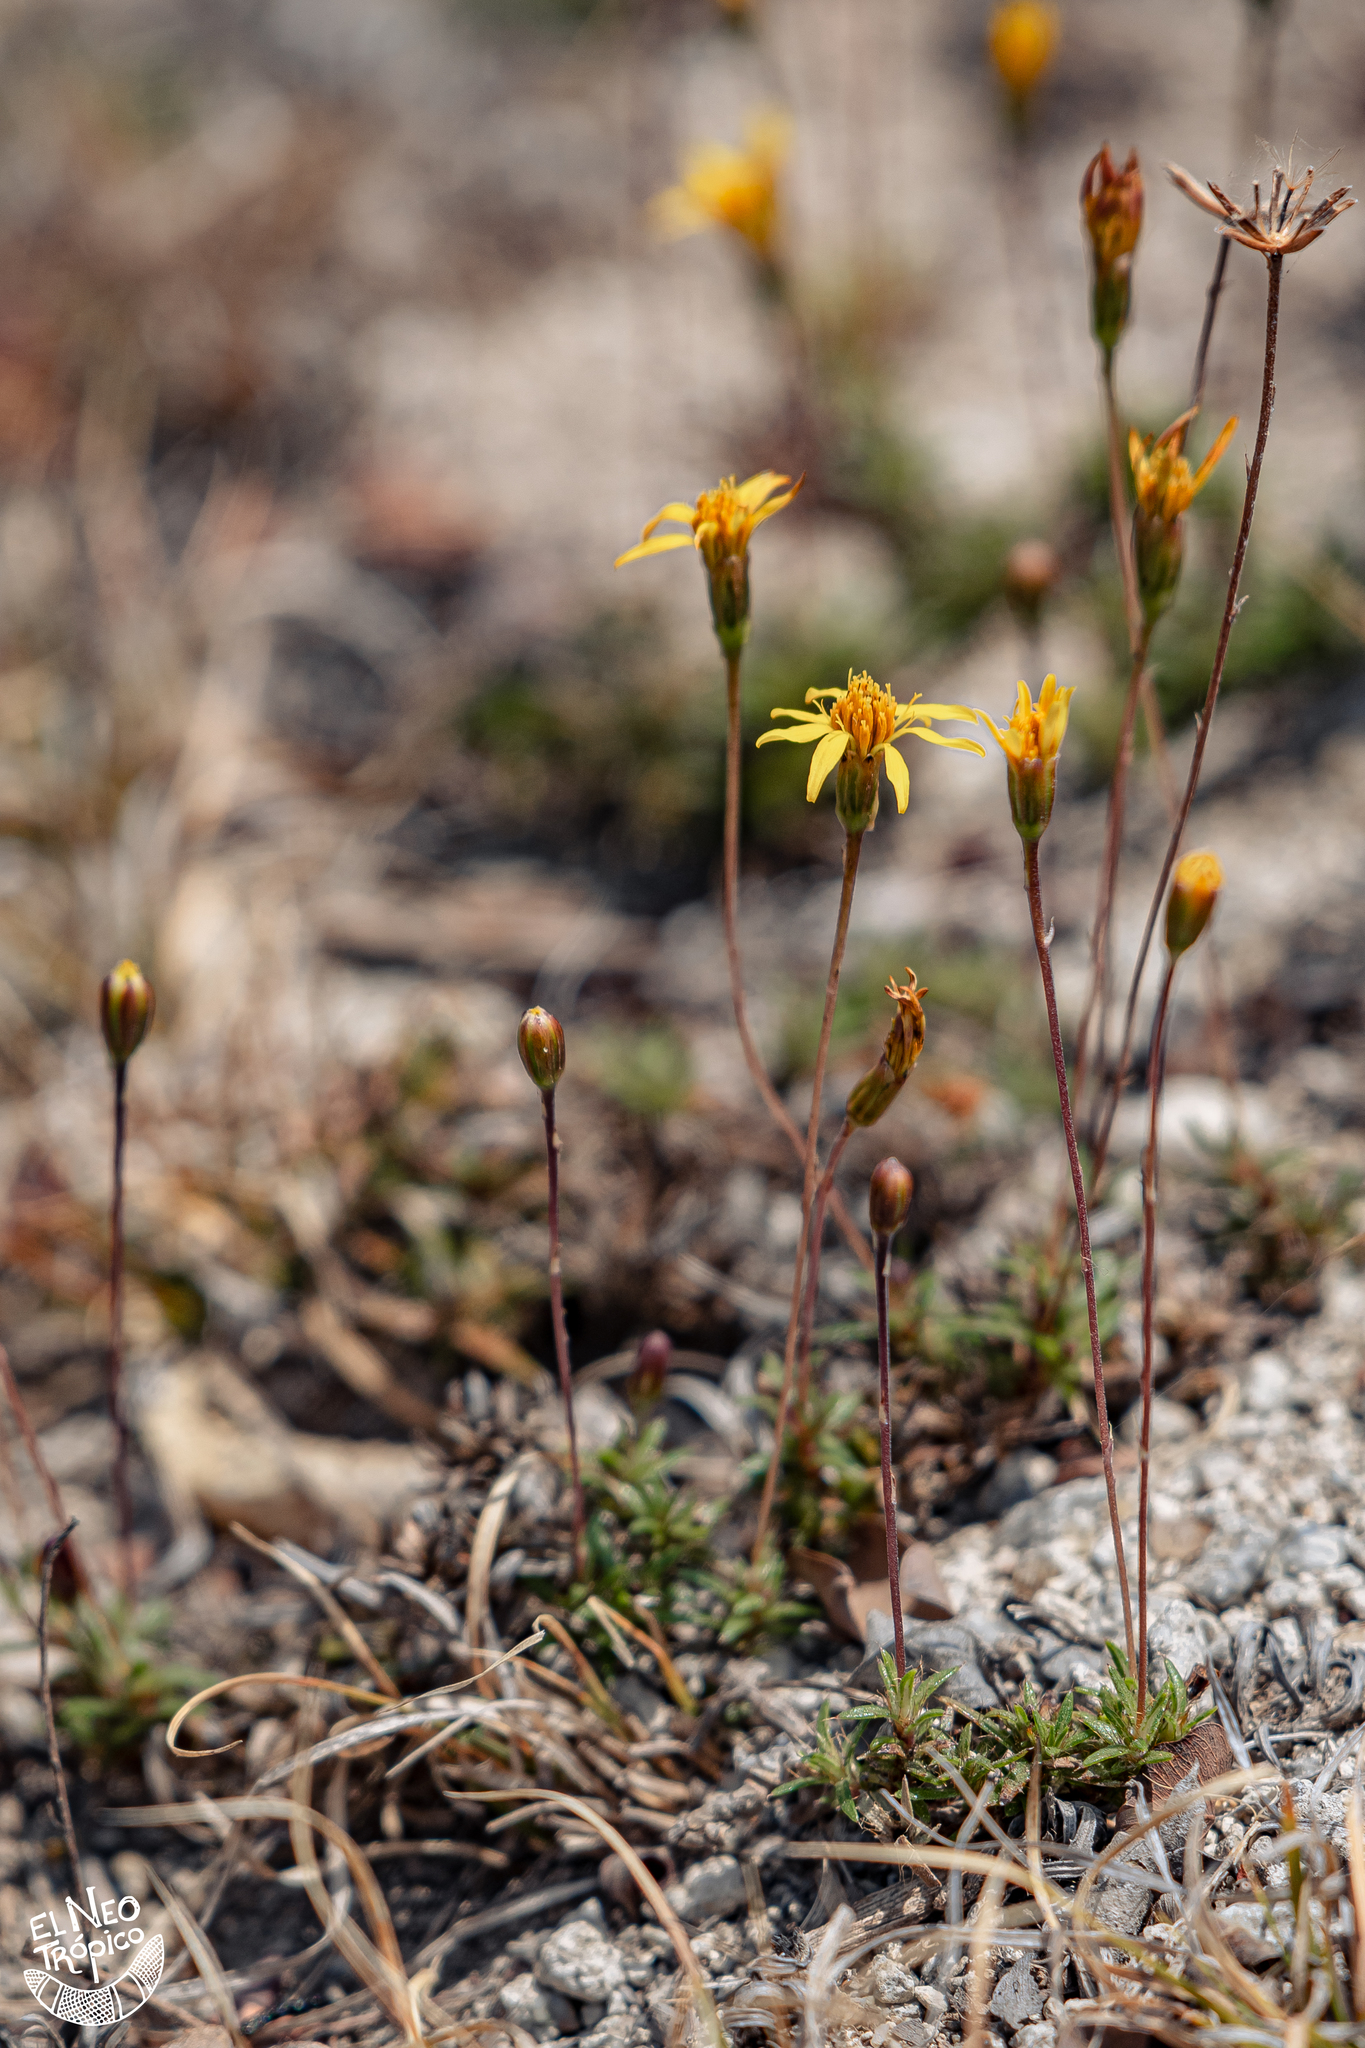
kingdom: Plantae
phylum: Tracheophyta
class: Magnoliopsida
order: Asterales
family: Asteraceae
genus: Pectis
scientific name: Pectis saturejoides
